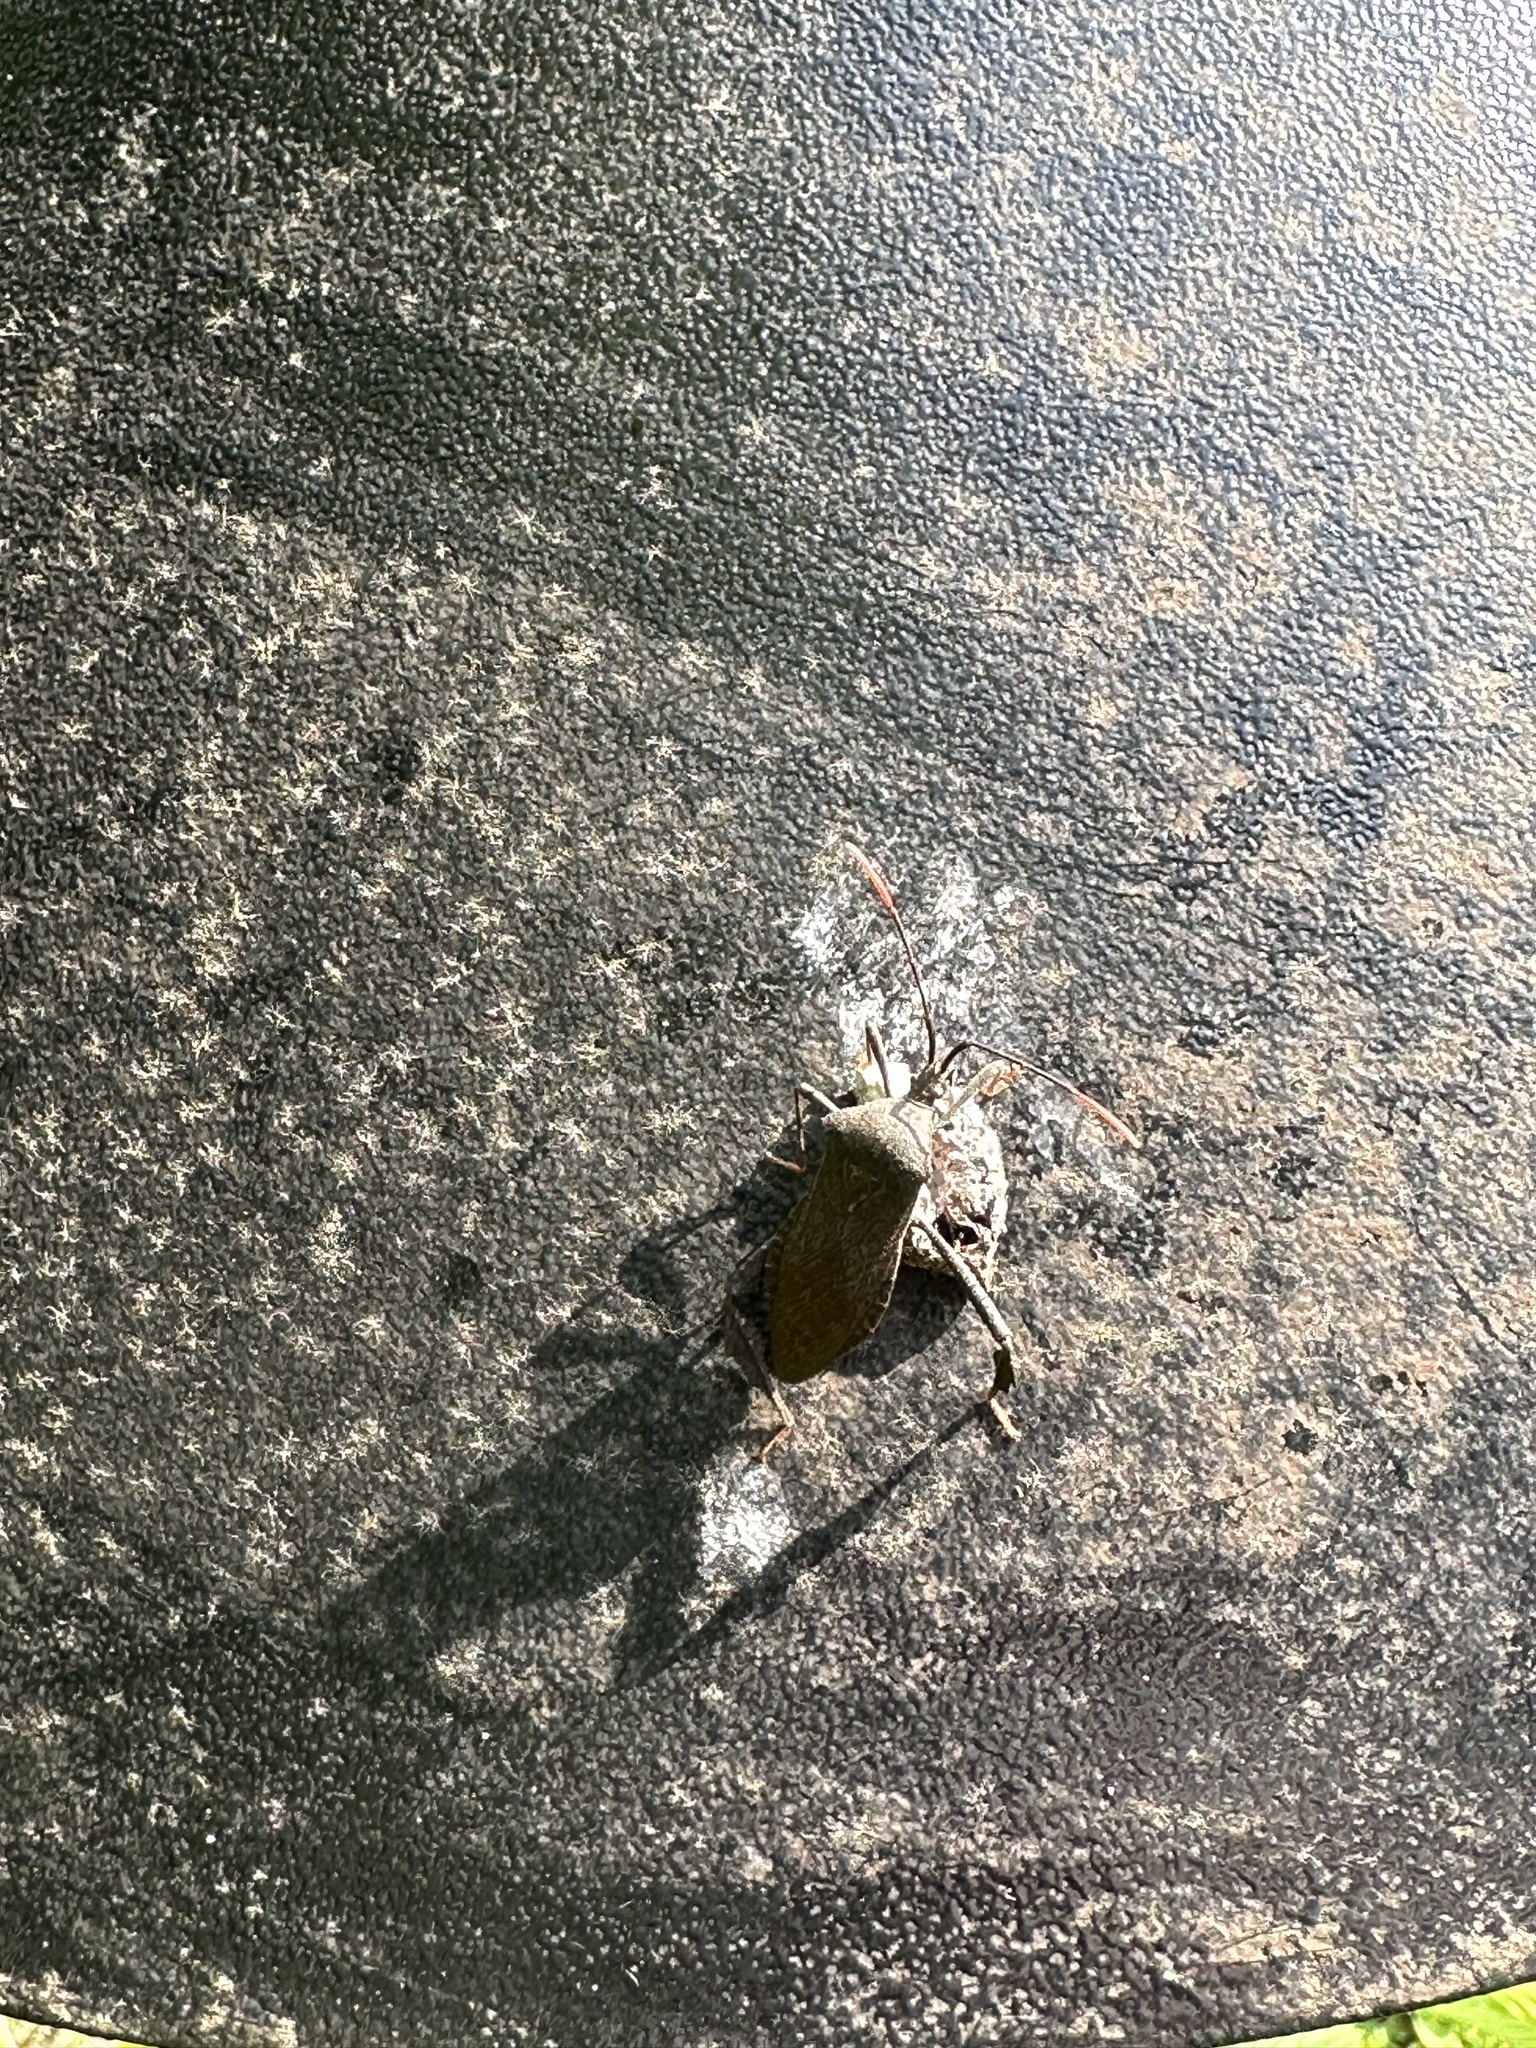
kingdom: Animalia
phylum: Arthropoda
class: Insecta
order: Hemiptera
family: Coreidae
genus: Acanthocephala
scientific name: Acanthocephala terminalis
